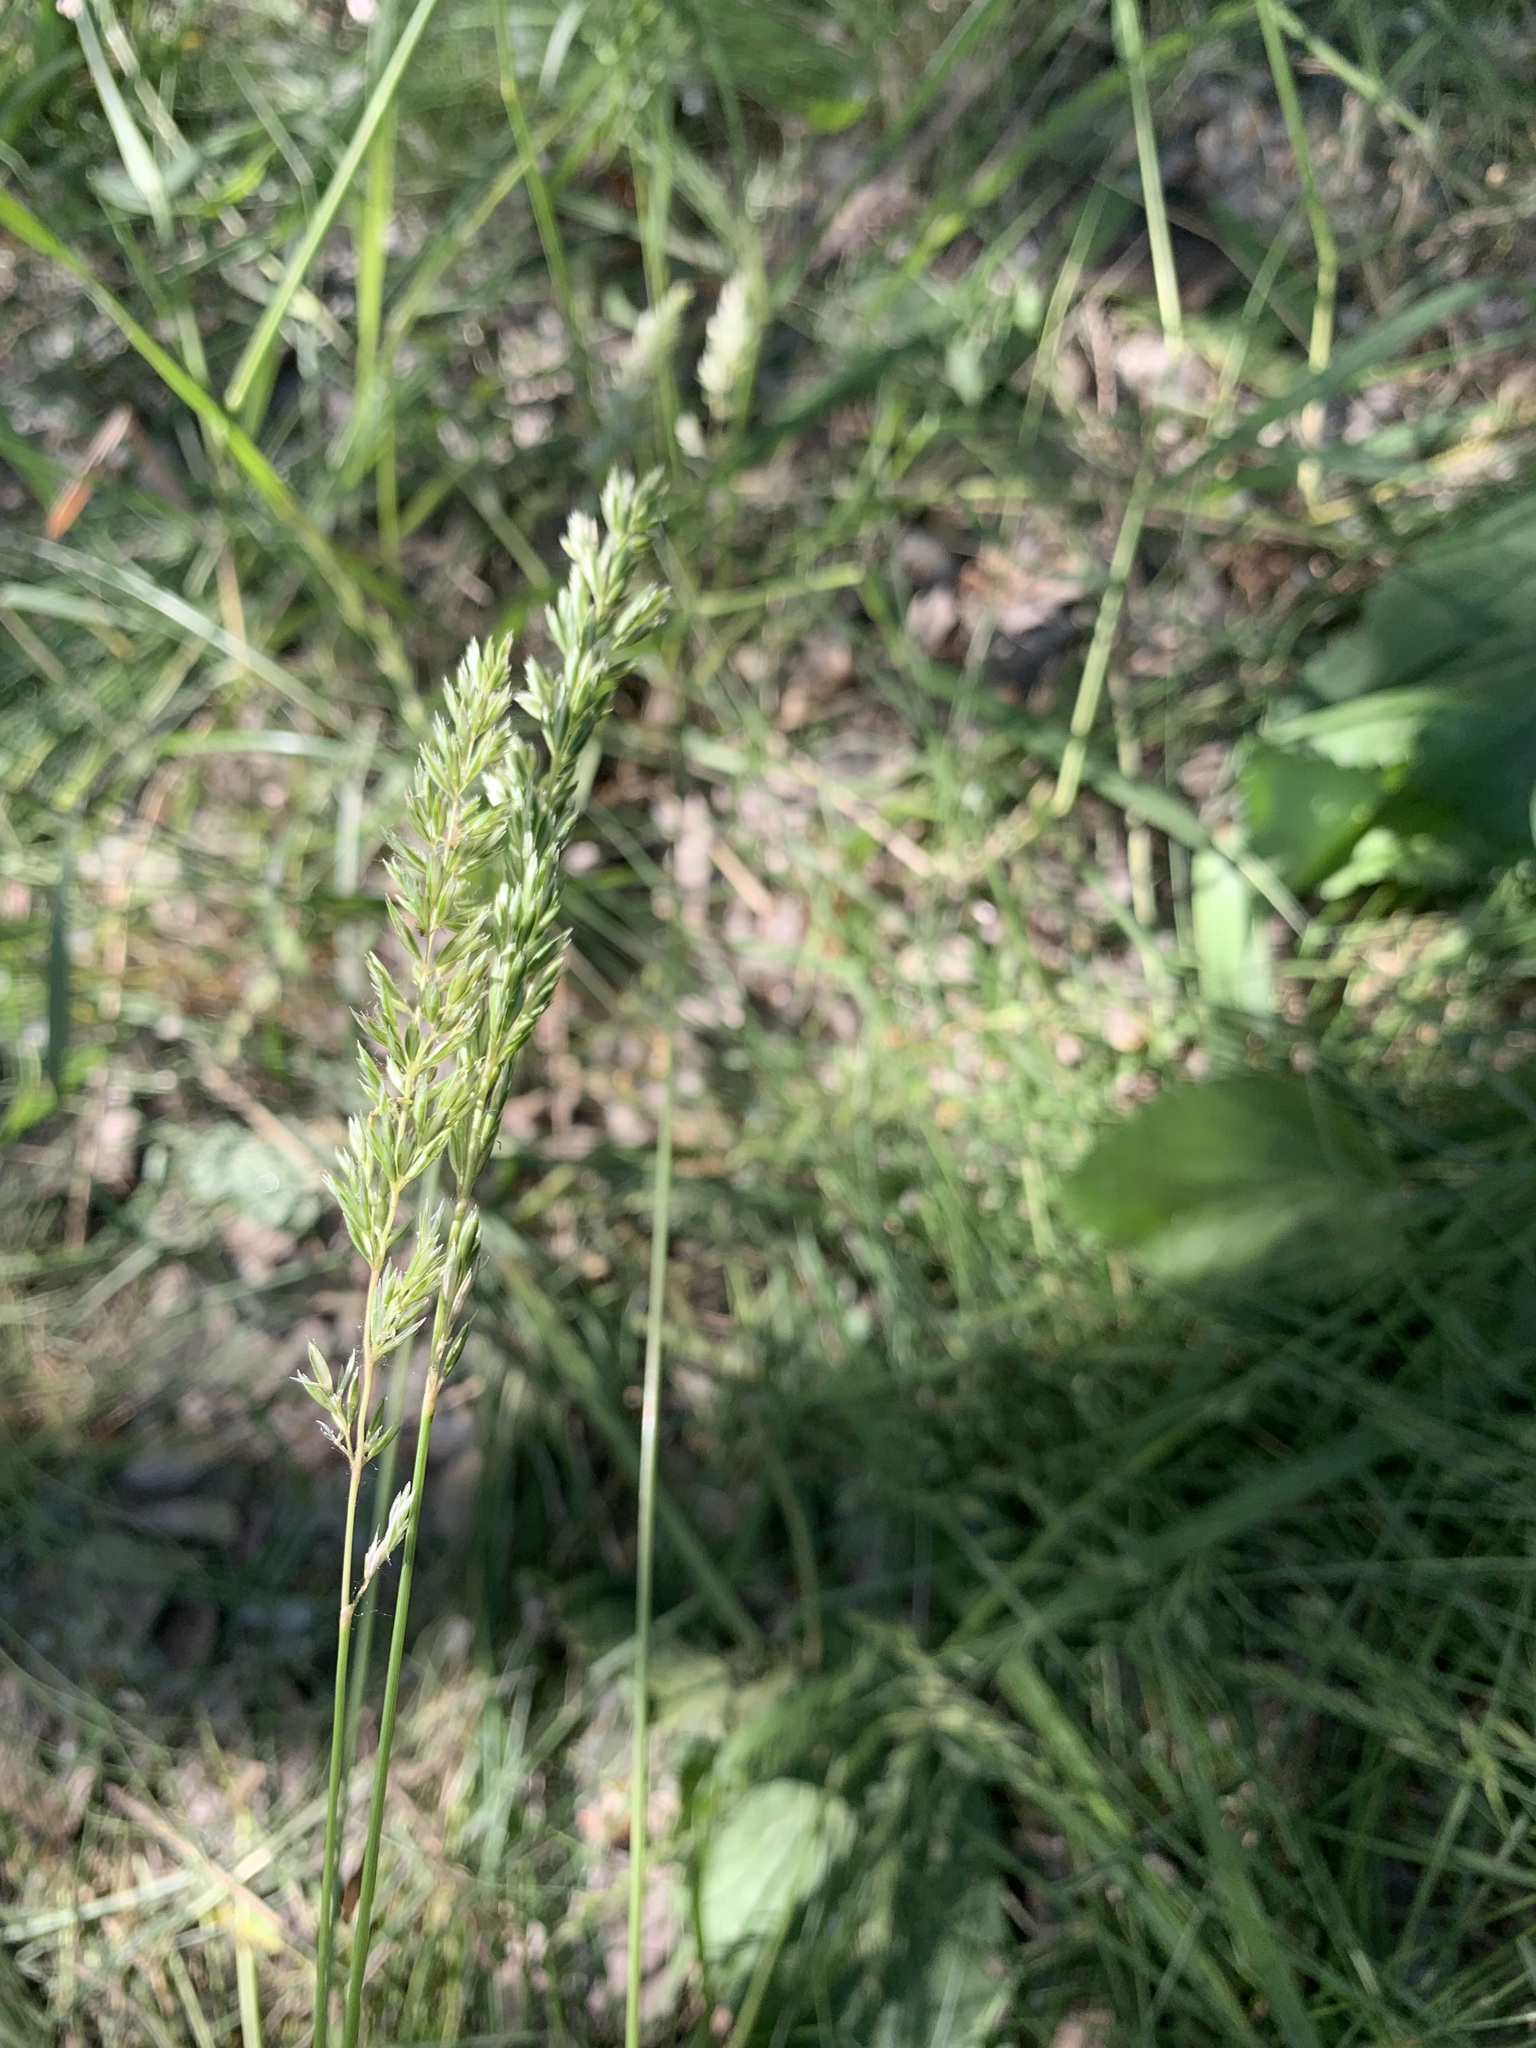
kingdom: Plantae
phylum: Tracheophyta
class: Liliopsida
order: Poales
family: Poaceae
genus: Koeleria
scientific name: Koeleria macrantha
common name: Crested hair-grass
